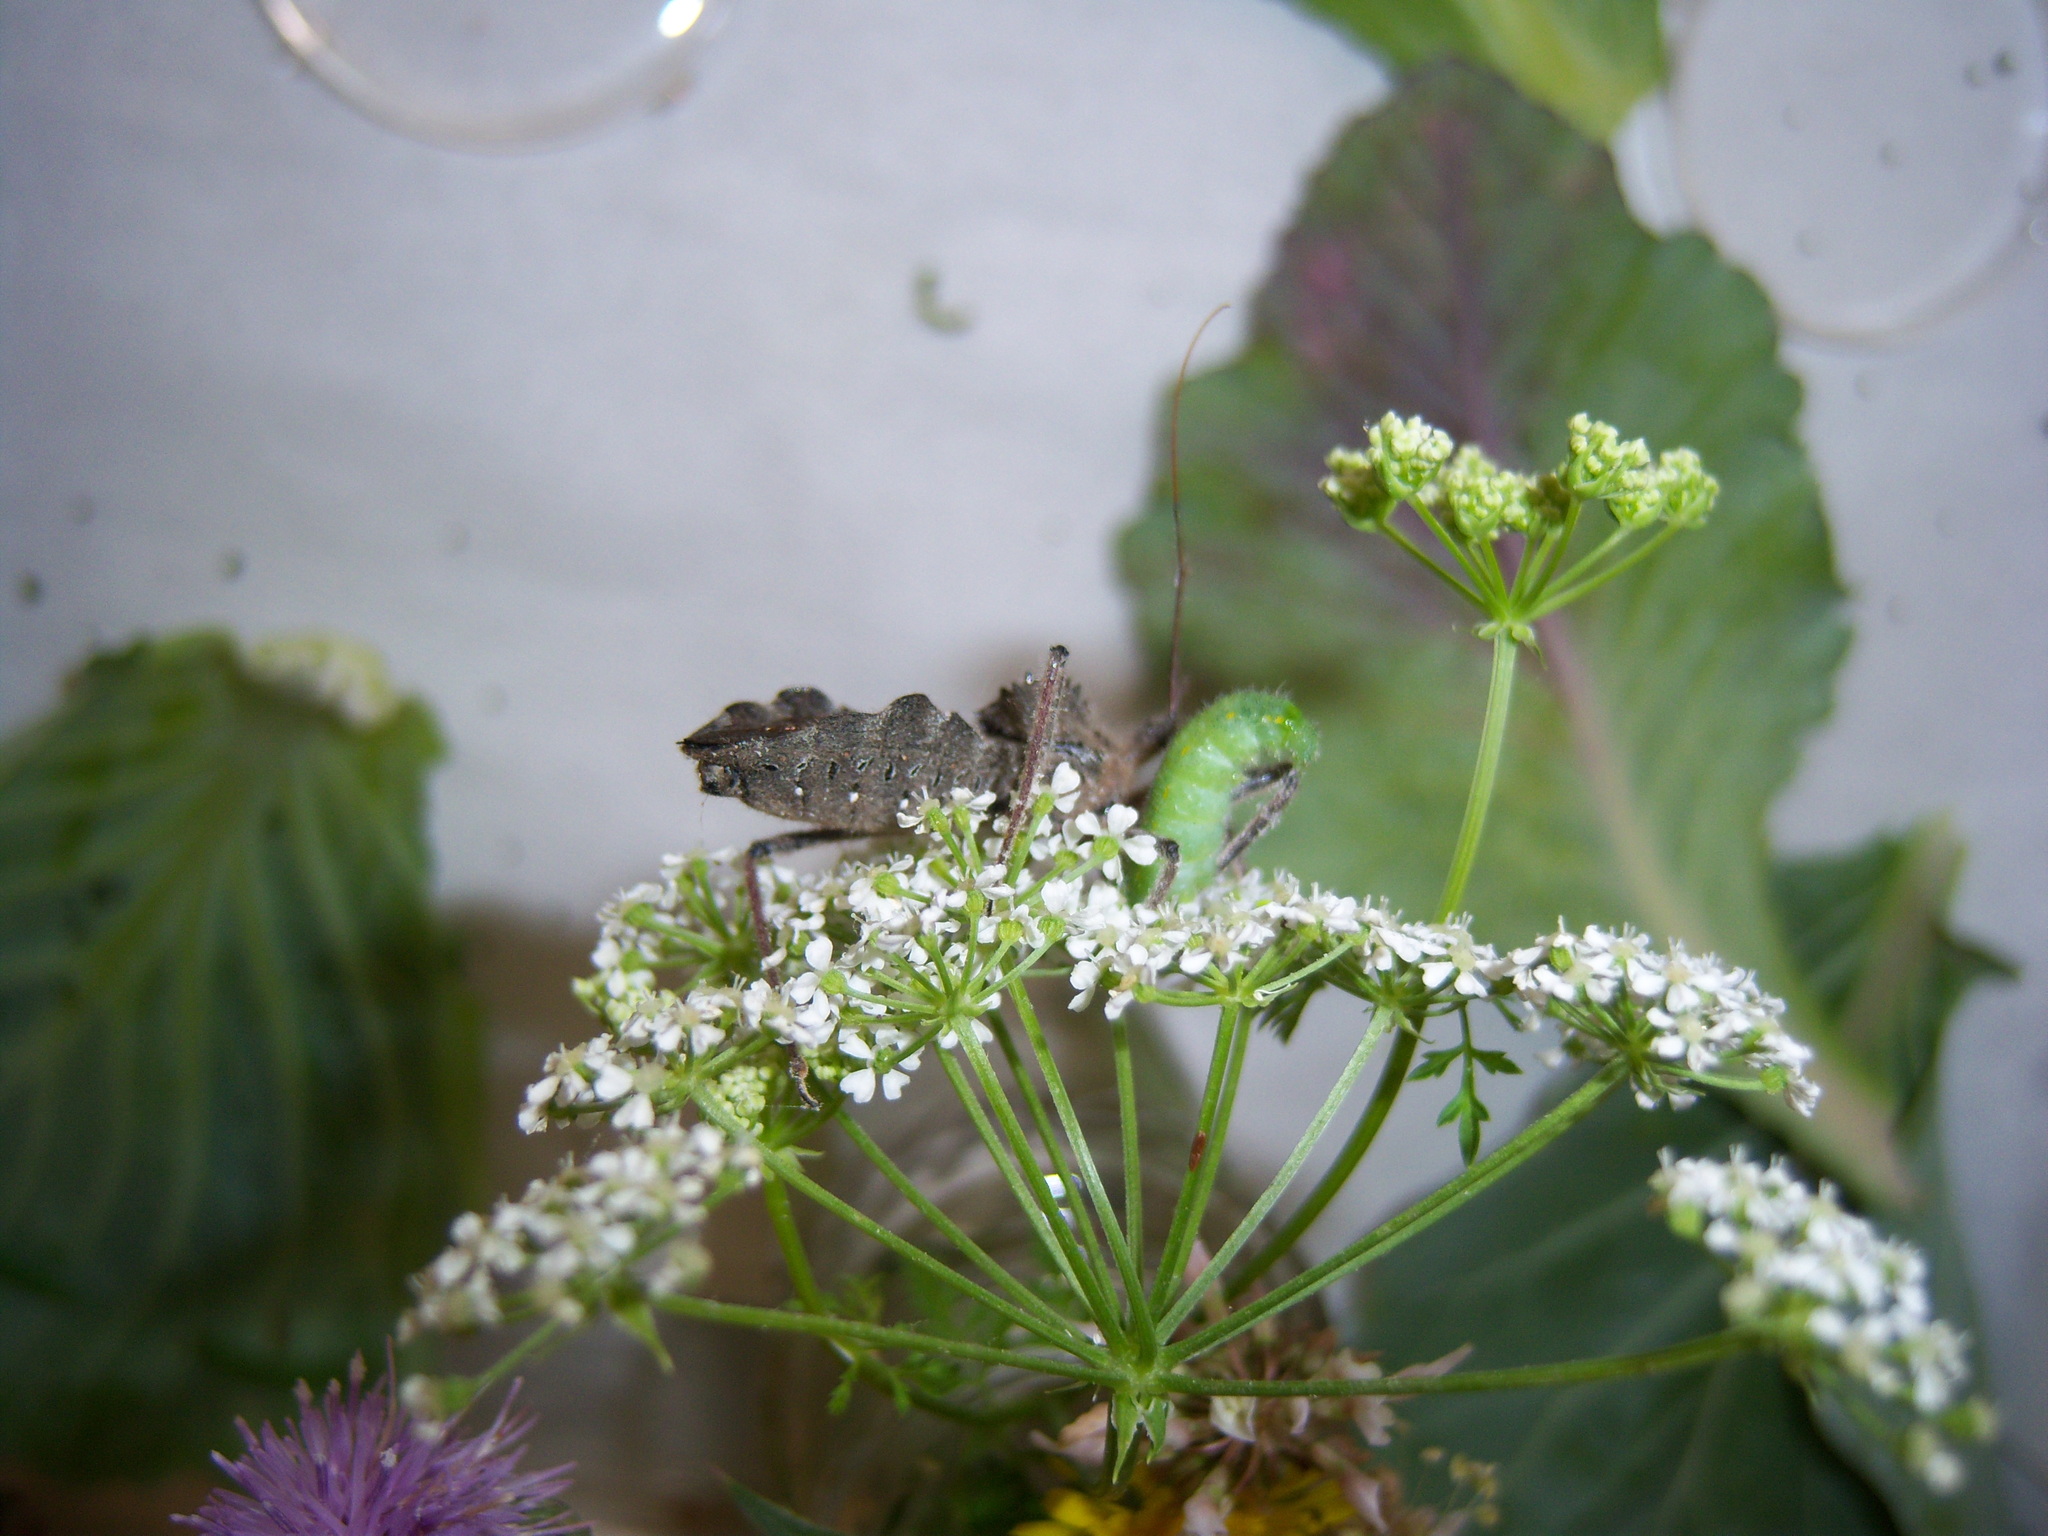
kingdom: Animalia
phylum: Arthropoda
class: Insecta
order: Hemiptera
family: Reduviidae
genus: Arilus
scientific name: Arilus cristatus
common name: North american wheel bug
